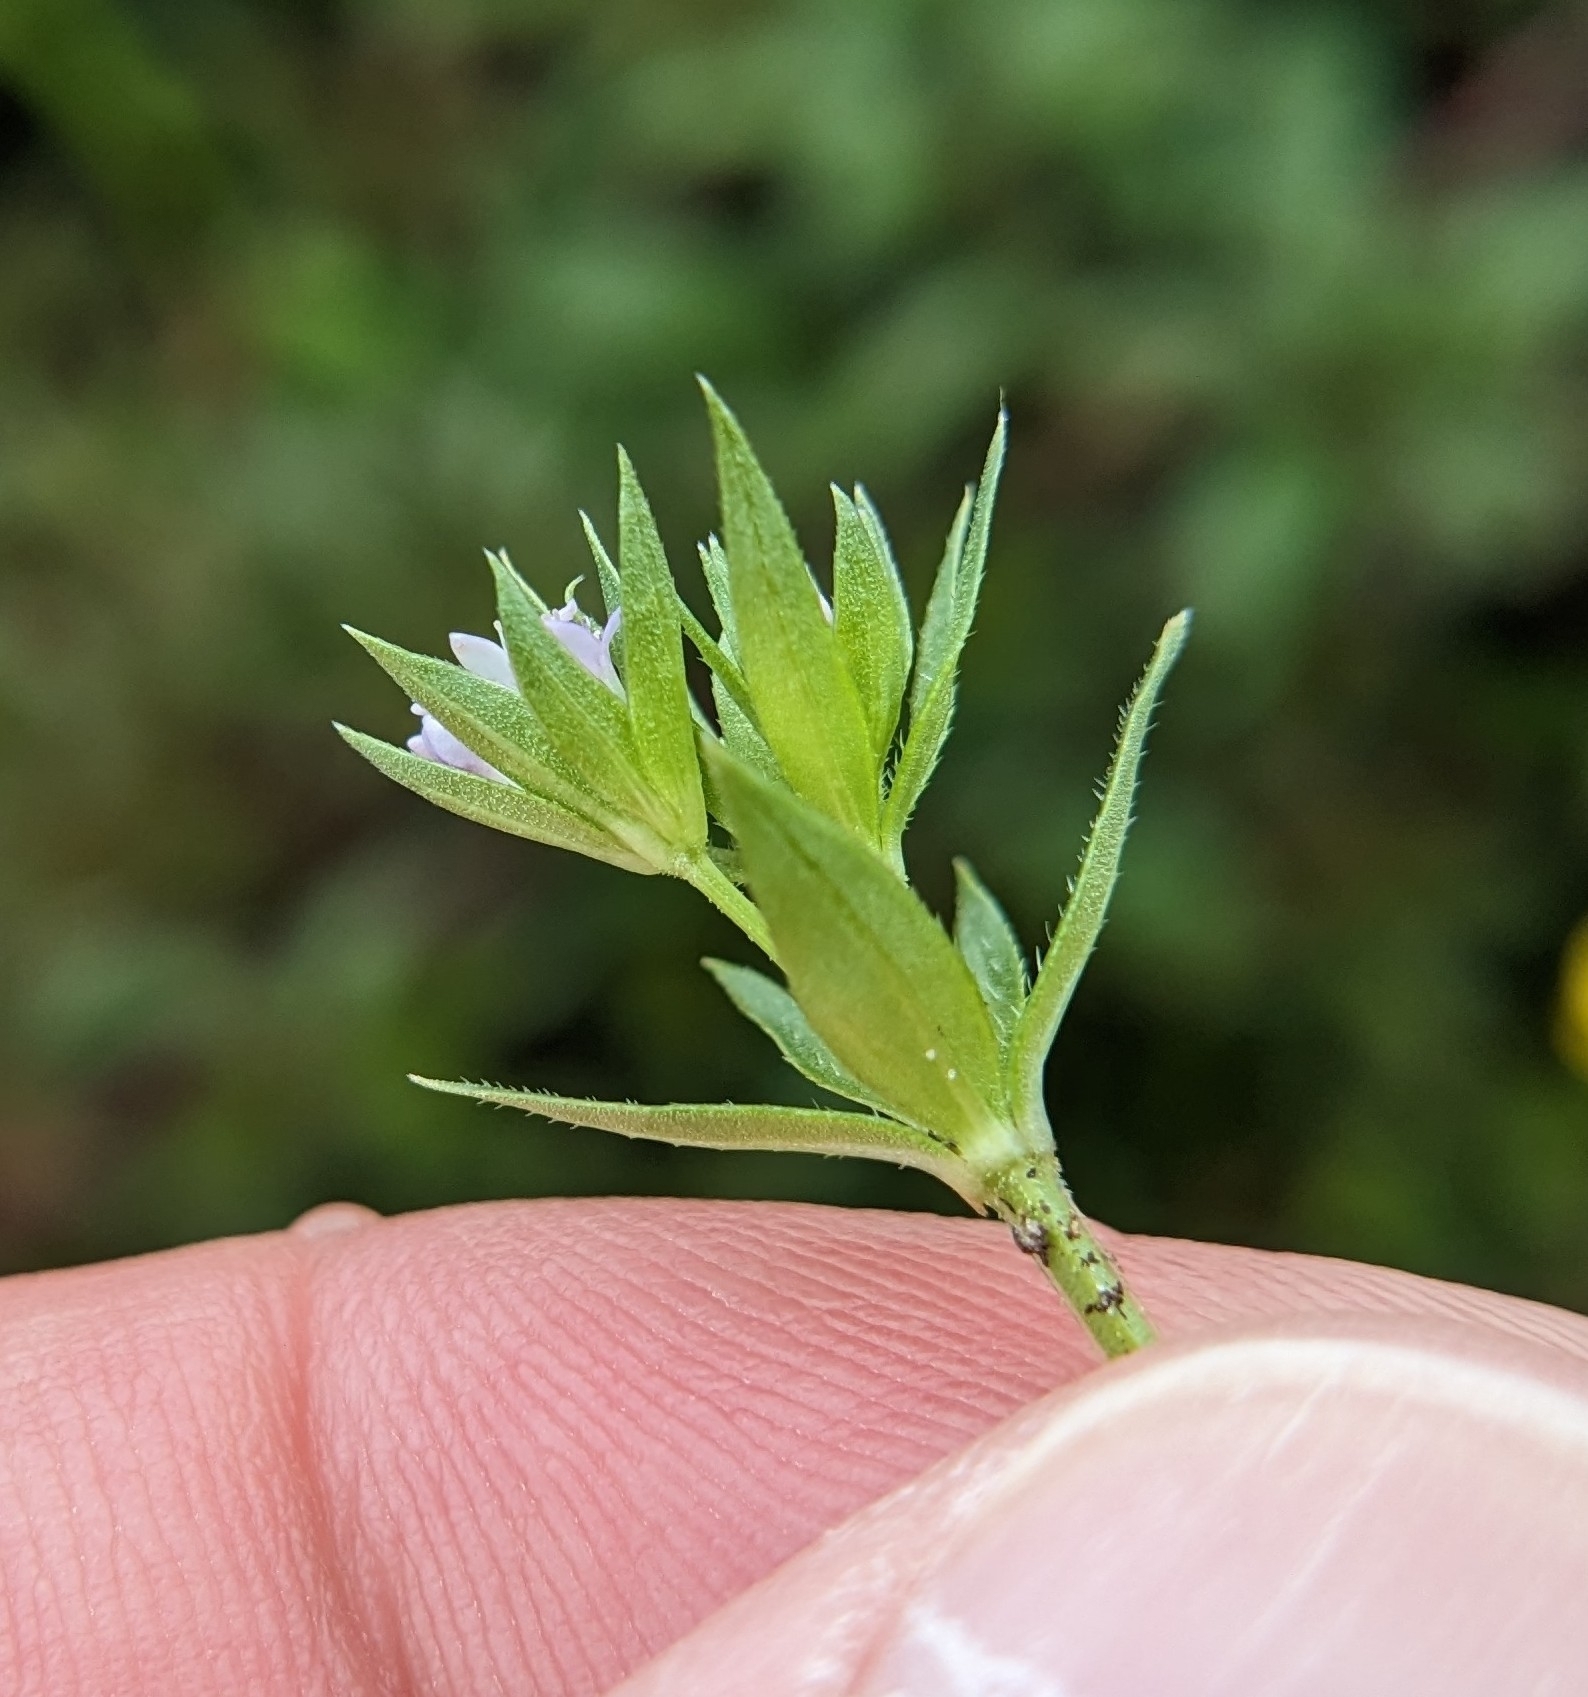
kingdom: Plantae
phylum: Tracheophyta
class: Magnoliopsida
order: Gentianales
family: Rubiaceae
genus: Sherardia
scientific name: Sherardia arvensis
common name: Field madder
